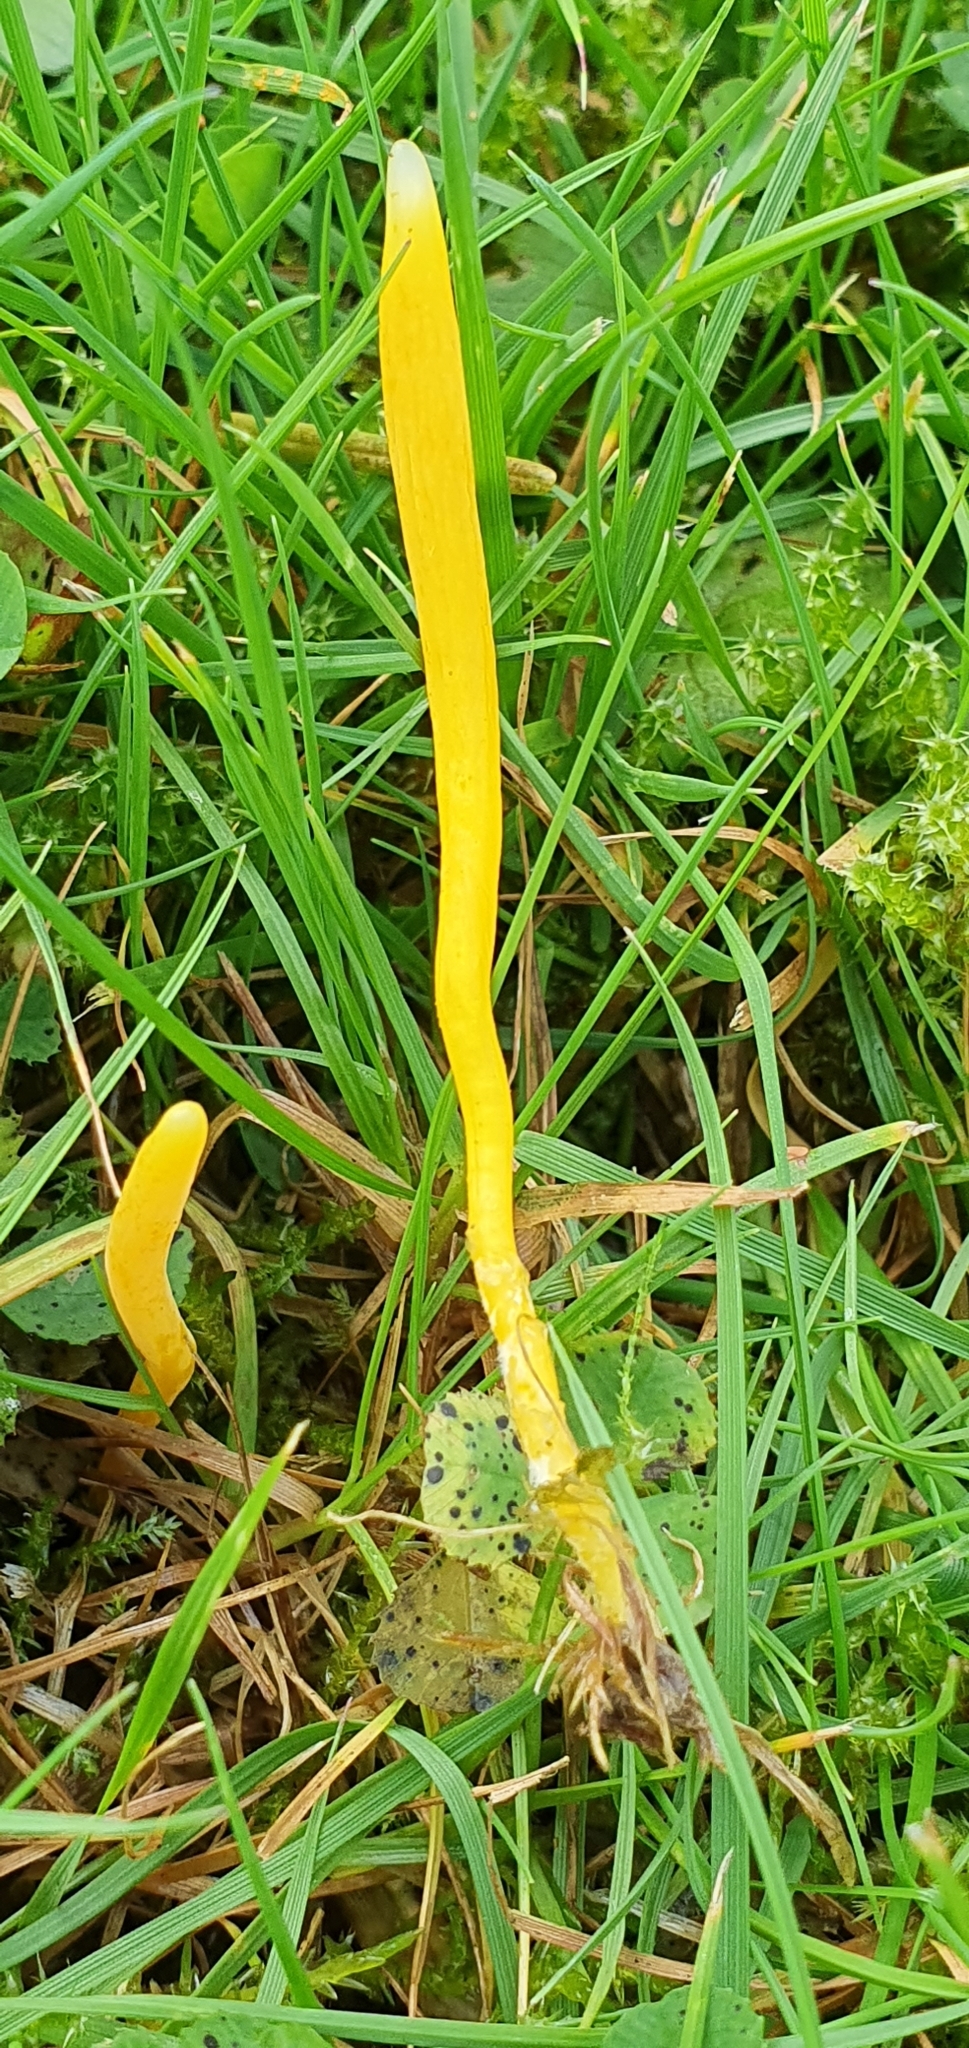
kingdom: Fungi
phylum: Basidiomycota
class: Agaricomycetes
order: Agaricales
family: Clavariaceae
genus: Clavulinopsis
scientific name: Clavulinopsis helvola
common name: Yellow club
